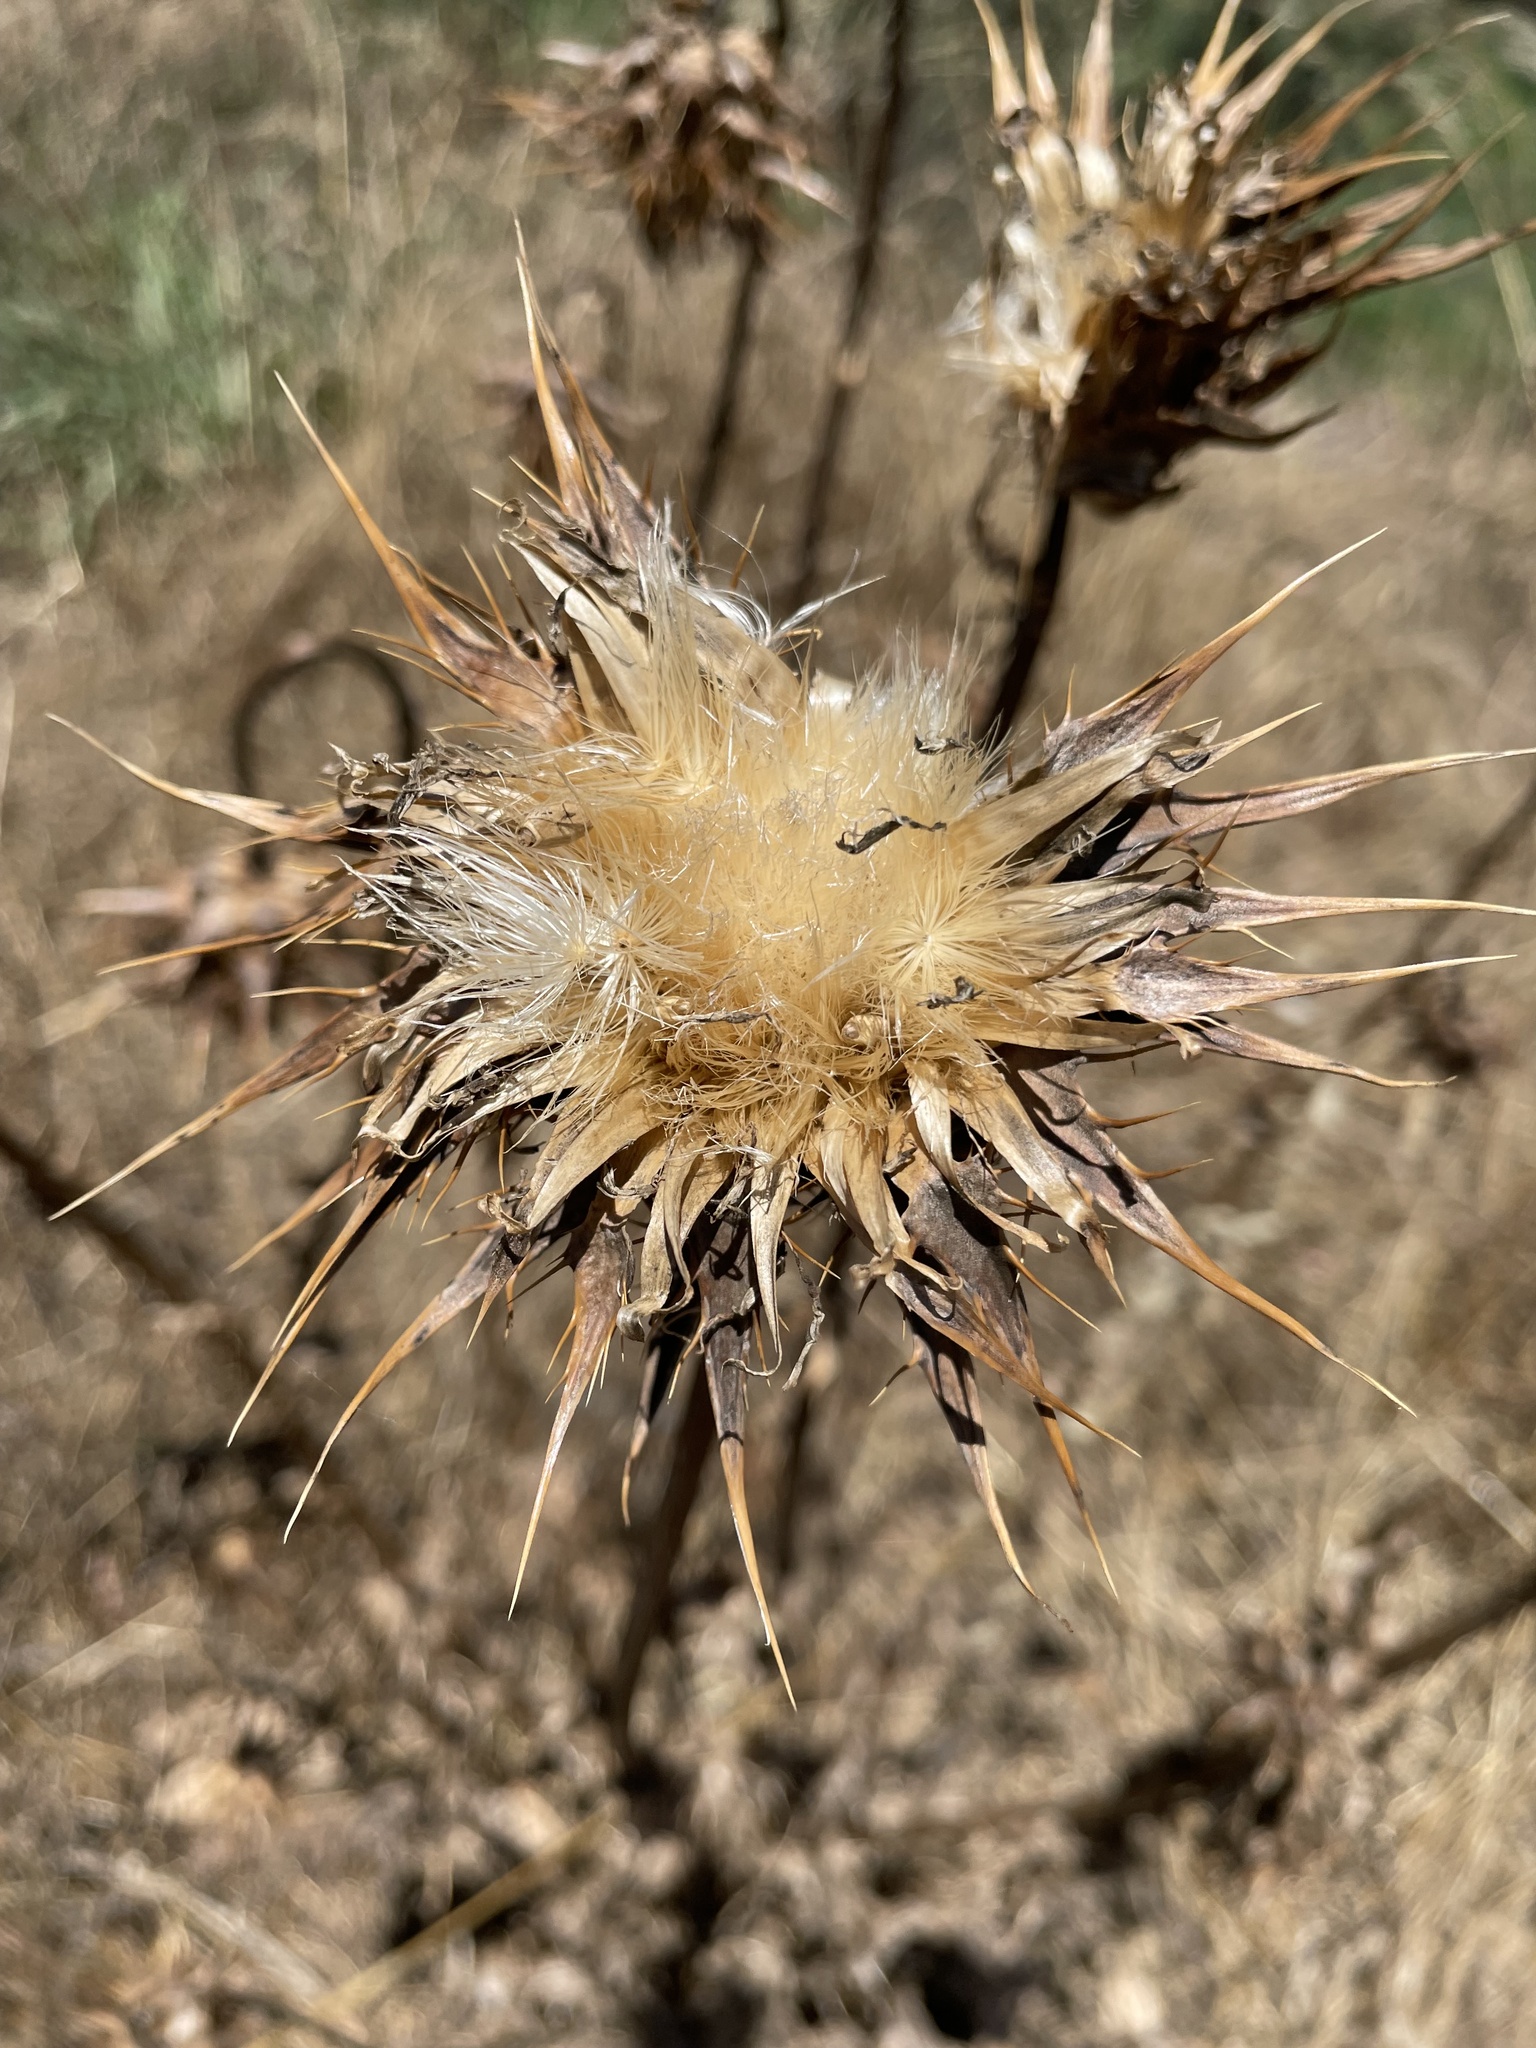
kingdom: Plantae
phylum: Tracheophyta
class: Magnoliopsida
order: Asterales
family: Asteraceae
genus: Silybum
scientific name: Silybum marianum
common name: Milk thistle
